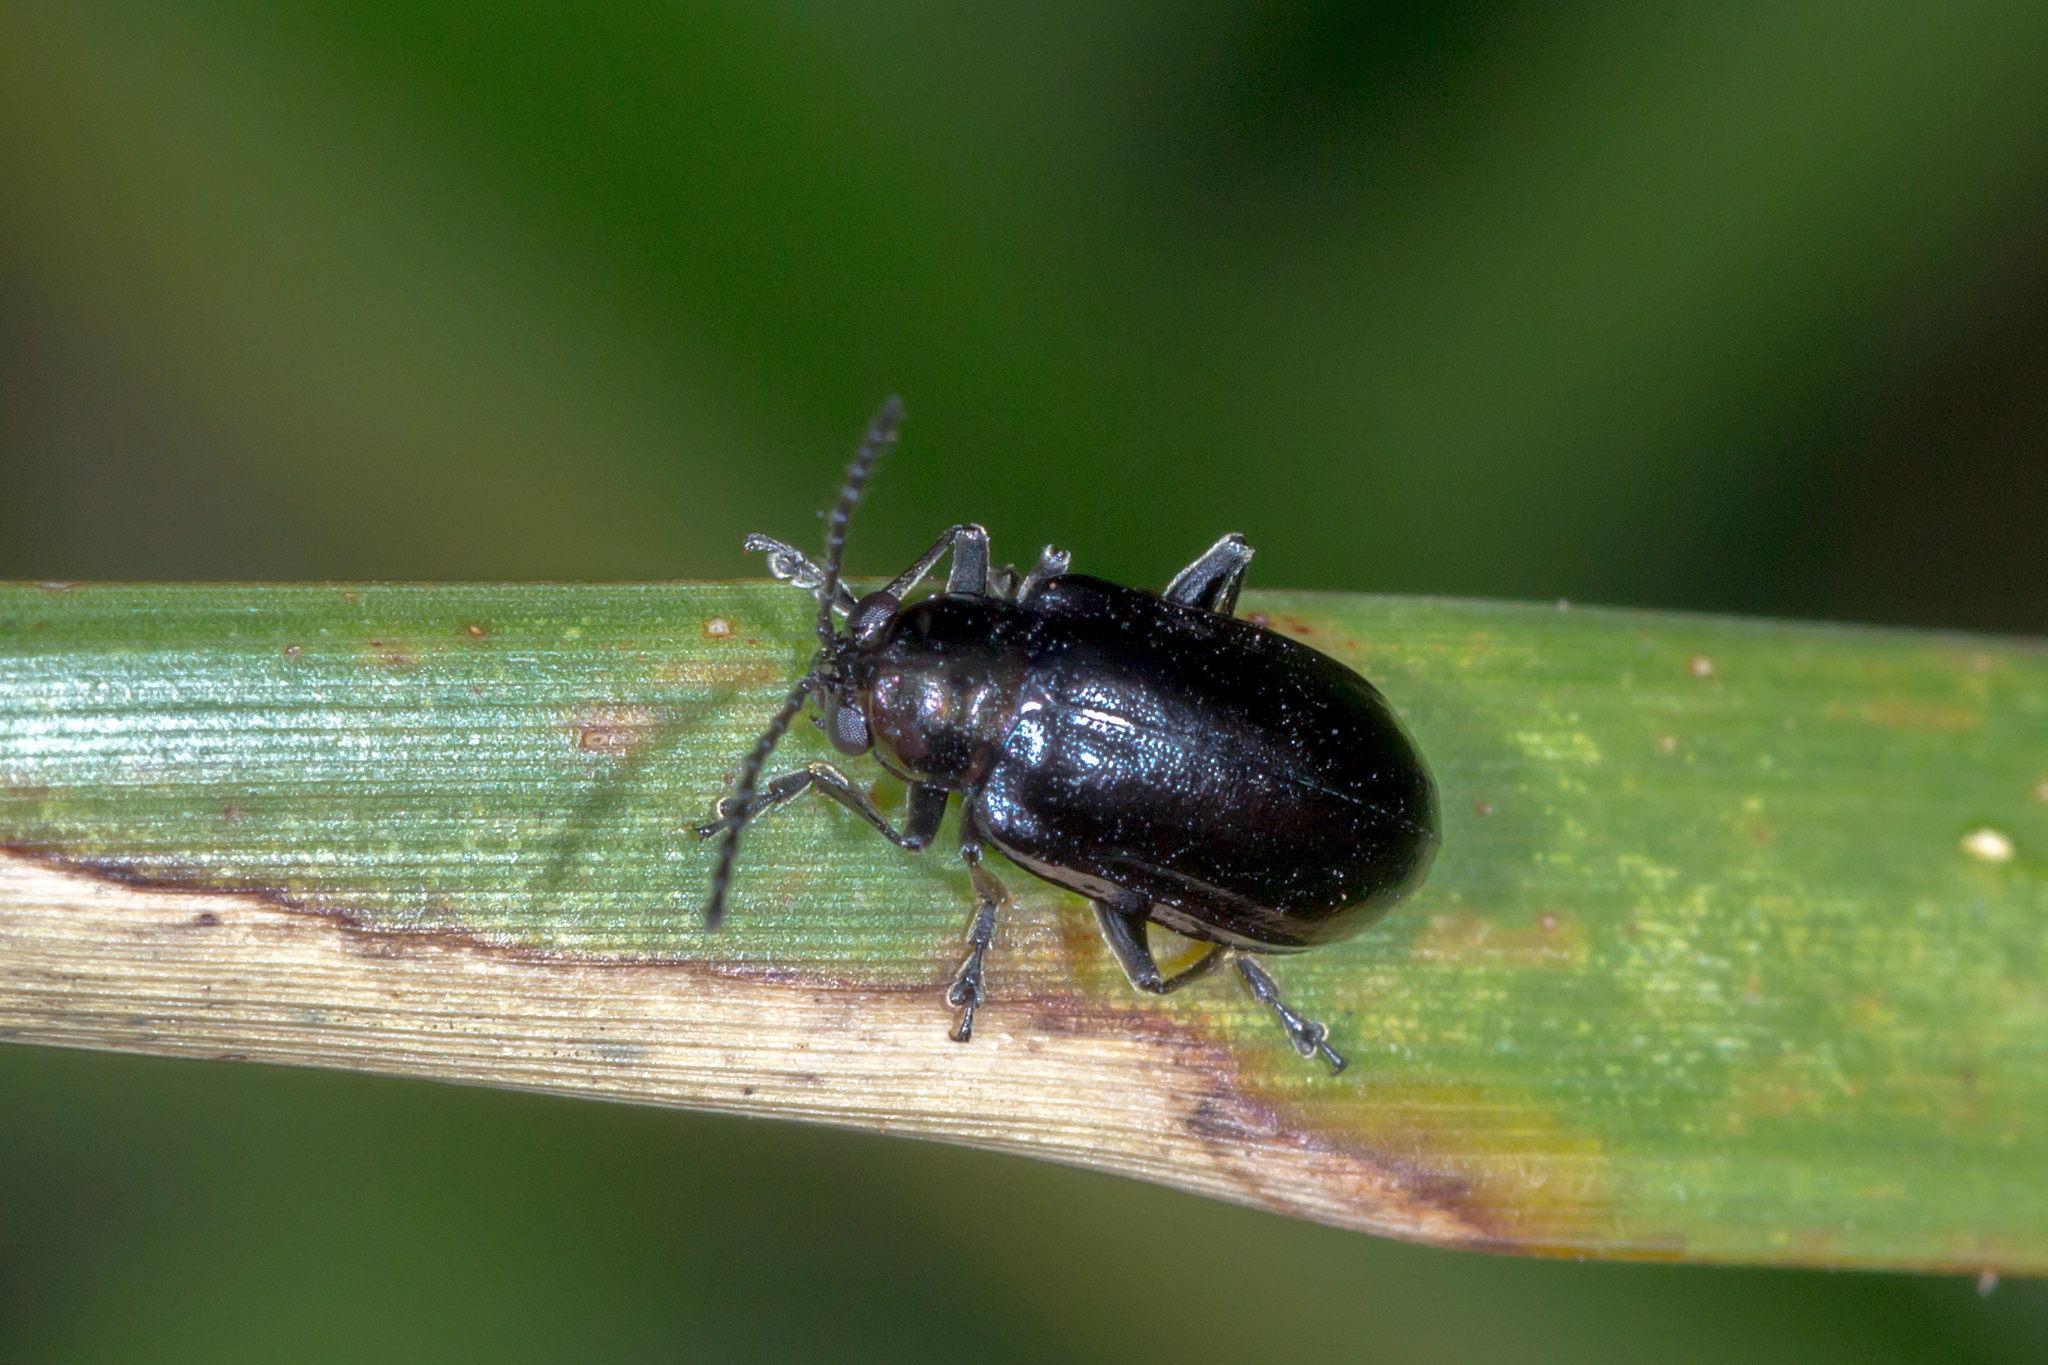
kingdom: Animalia
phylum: Arthropoda
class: Insecta
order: Coleoptera
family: Chrysomelidae
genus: Altica
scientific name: Altica gravida
